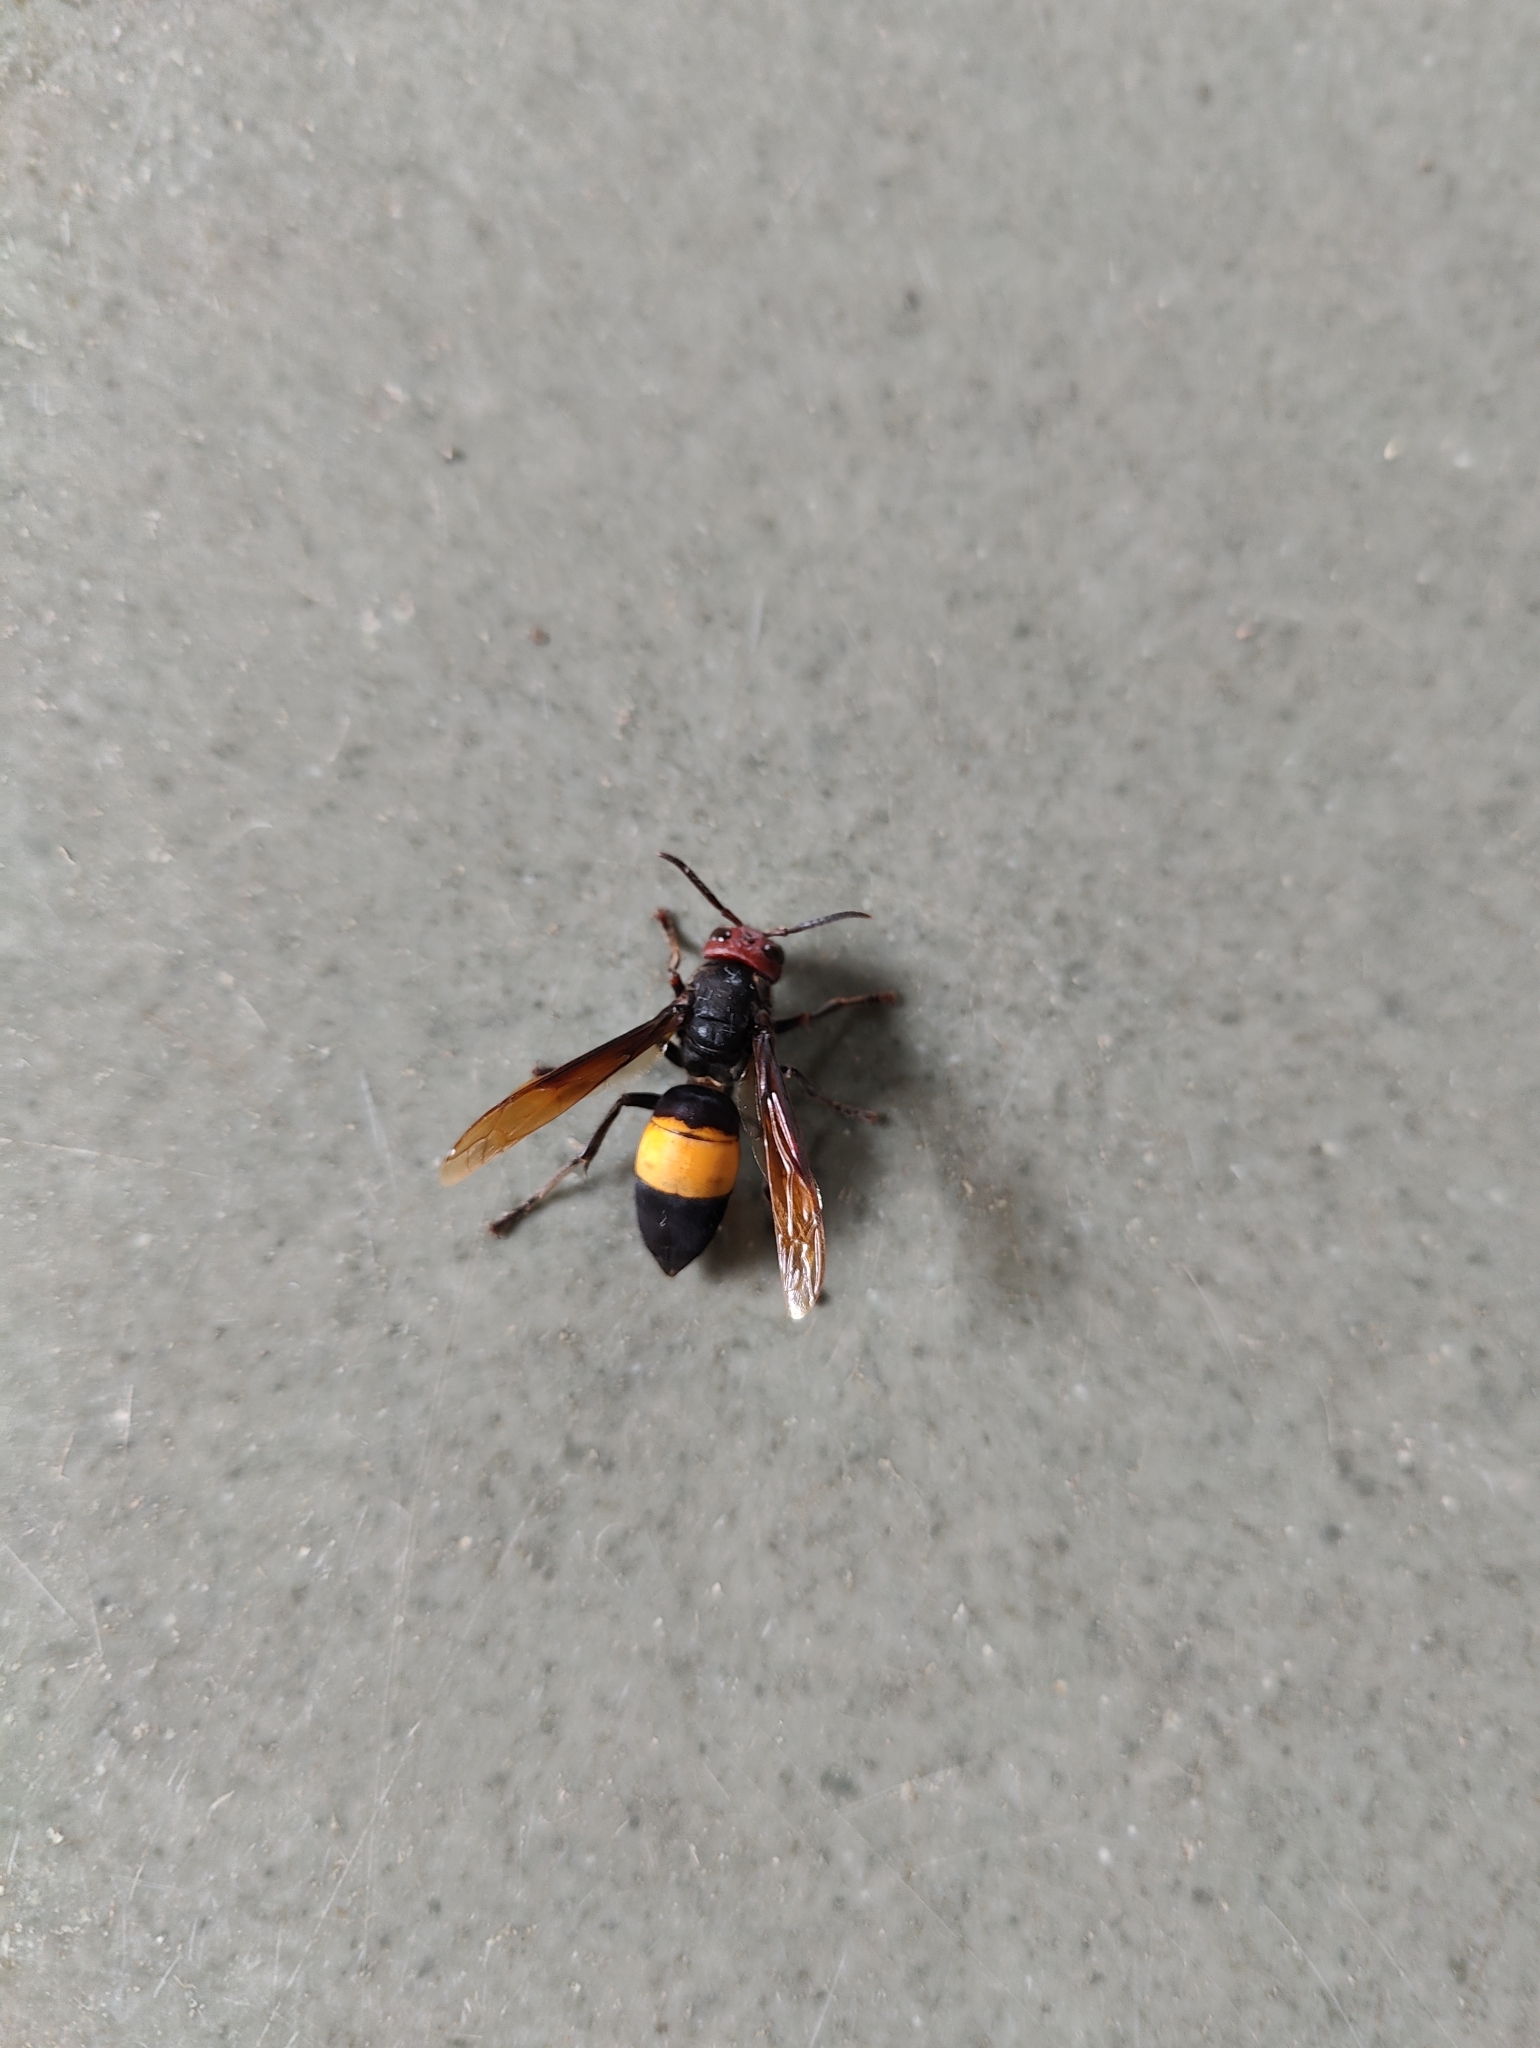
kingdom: Animalia
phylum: Arthropoda
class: Insecta
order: Hymenoptera
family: Vespidae
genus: Vespa
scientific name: Vespa tropica
